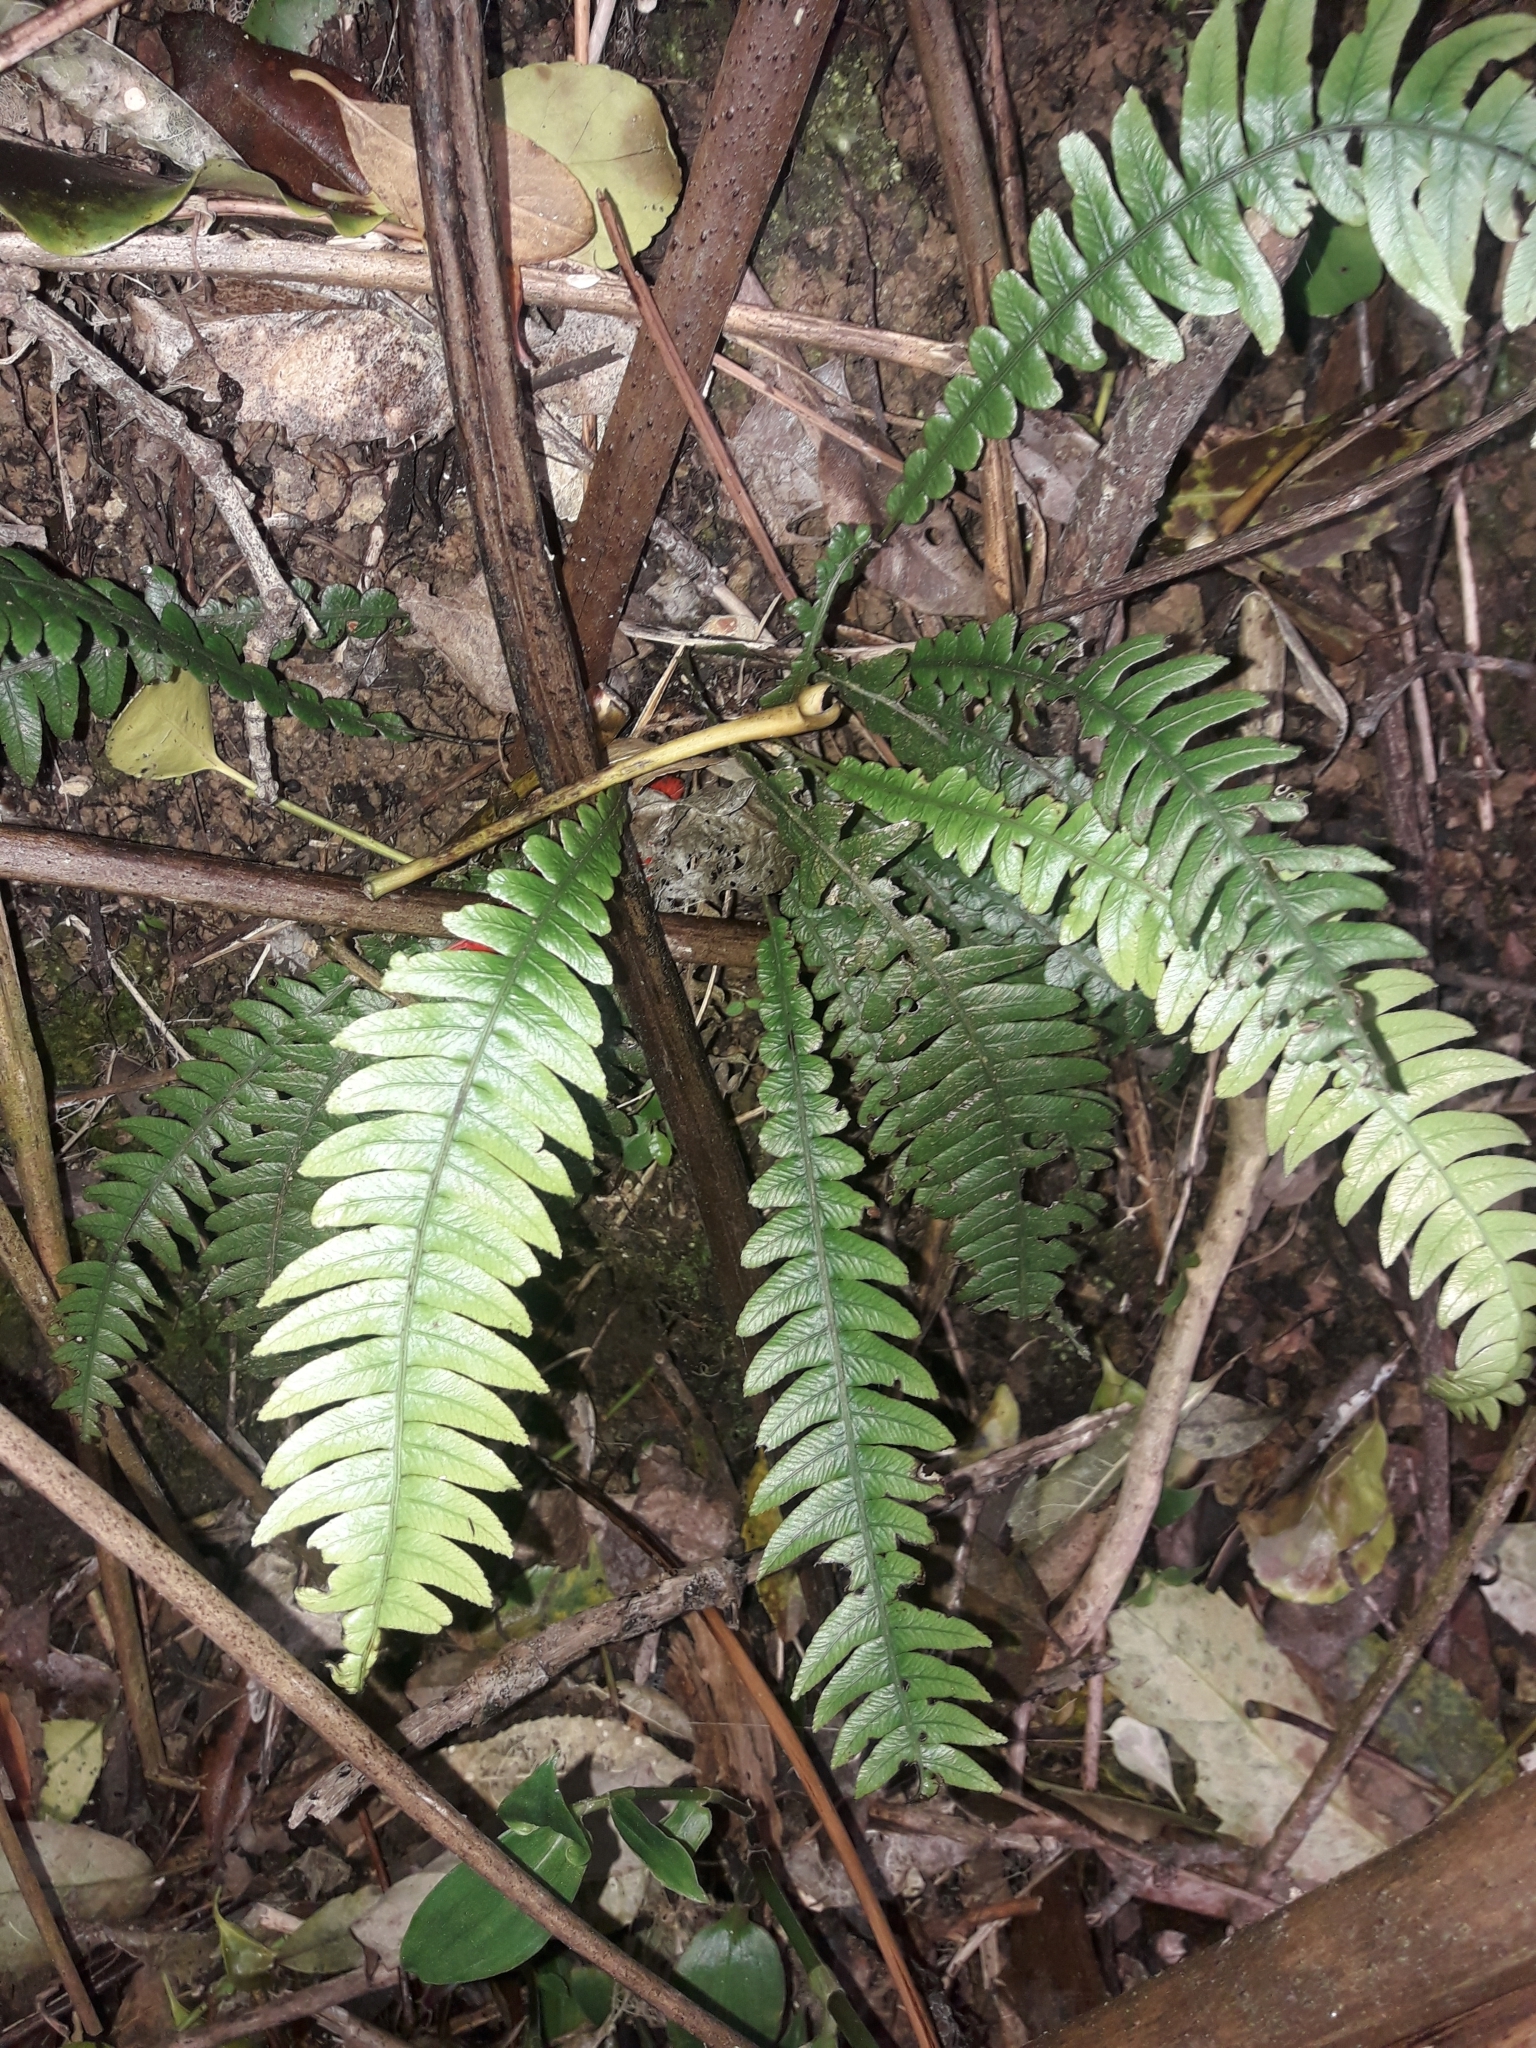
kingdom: Plantae
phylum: Tracheophyta
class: Polypodiopsida
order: Polypodiales
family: Blechnaceae
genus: Austroblechnum
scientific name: Austroblechnum lanceolatum
